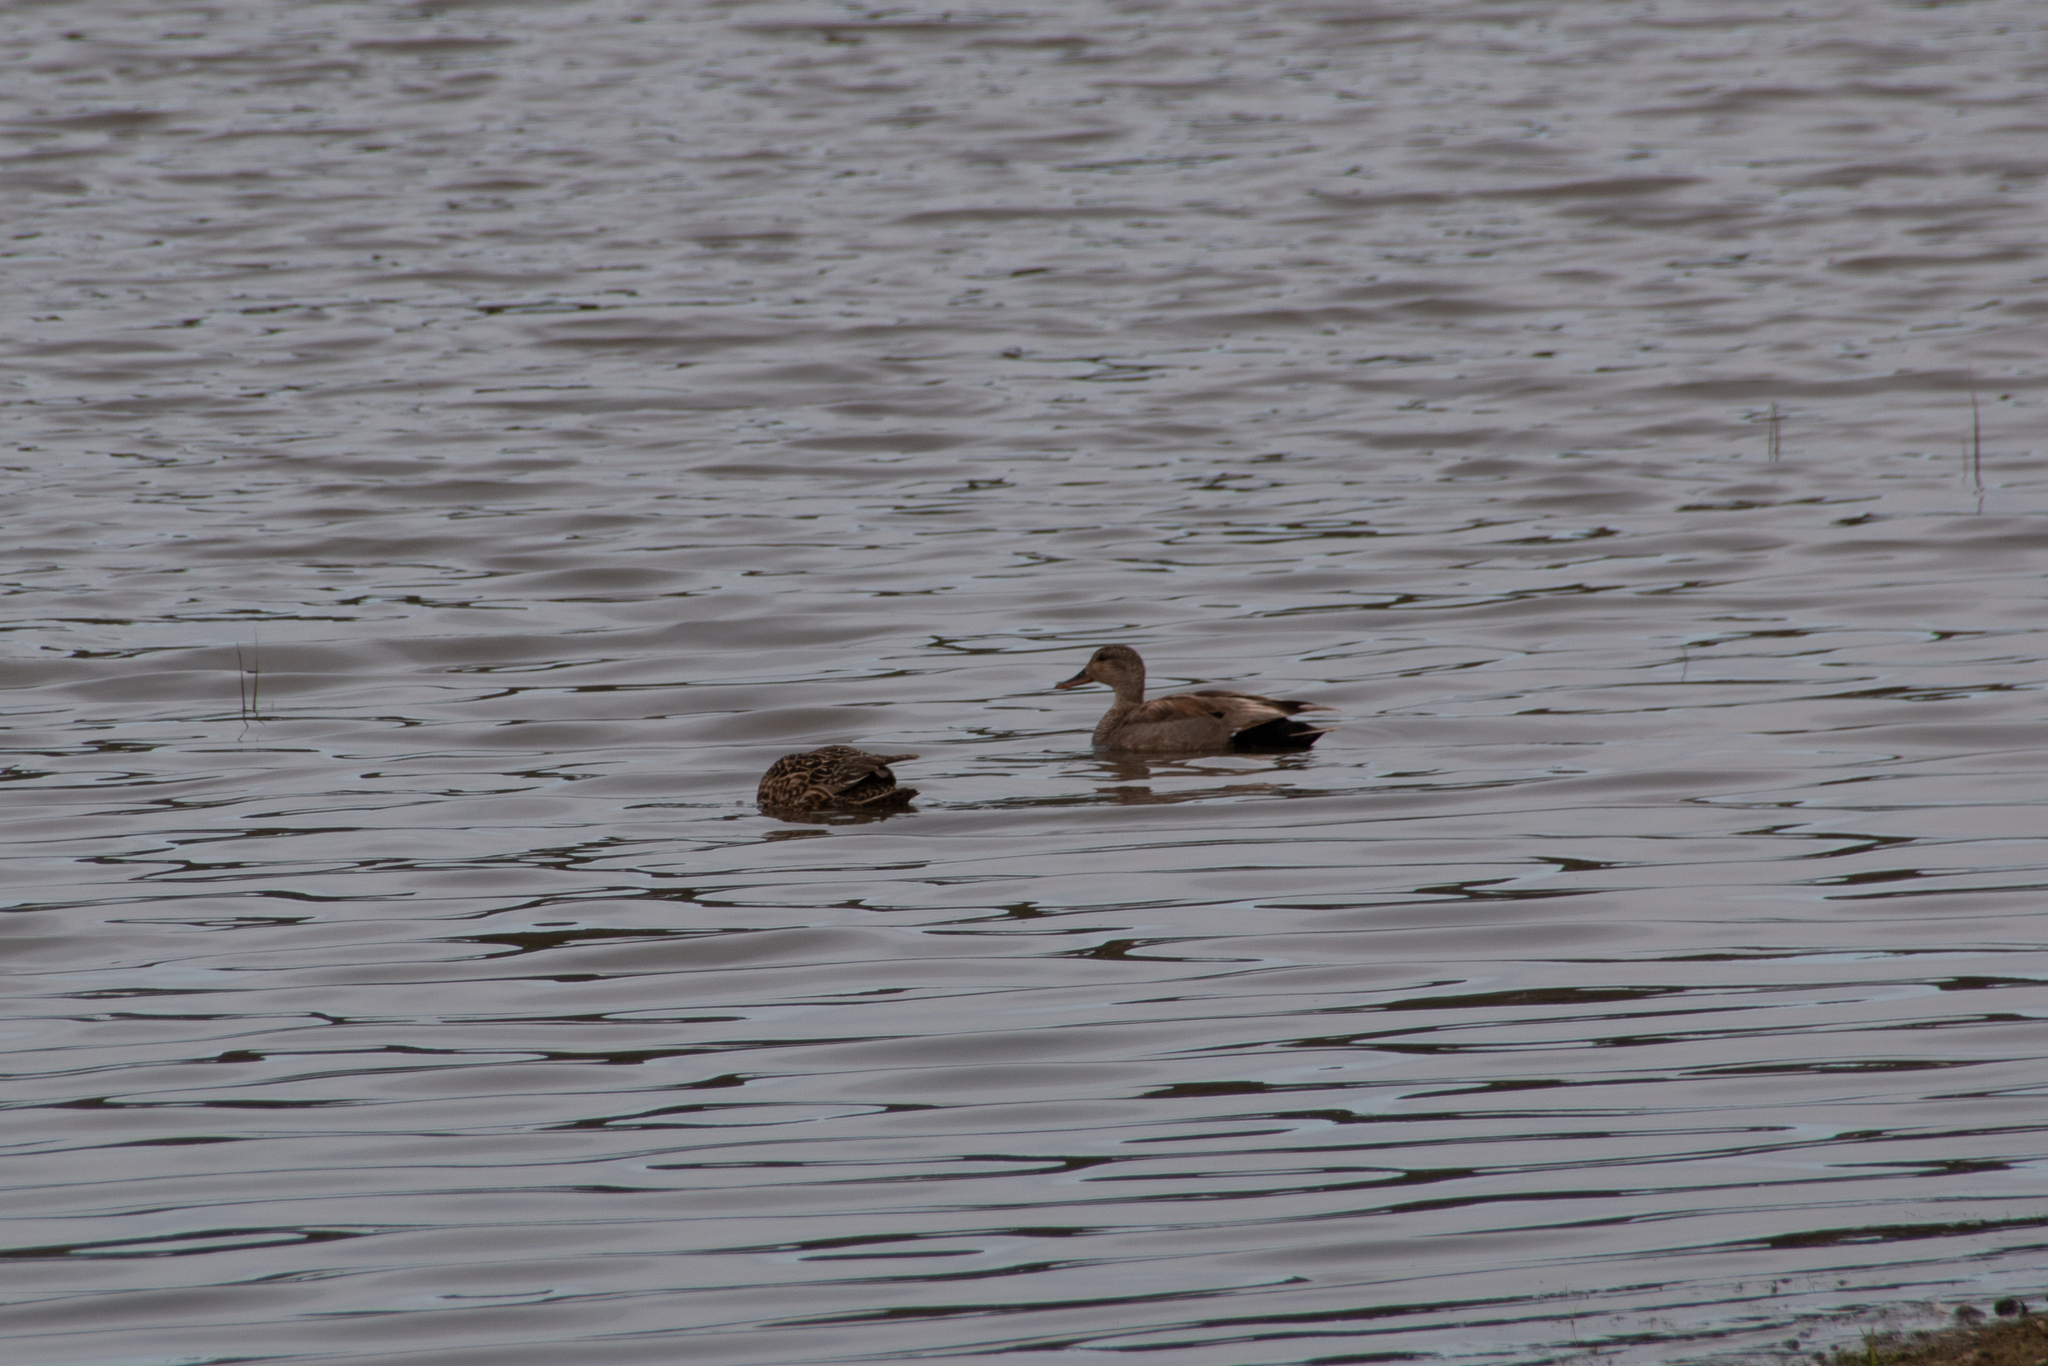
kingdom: Animalia
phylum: Chordata
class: Aves
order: Anseriformes
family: Anatidae
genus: Mareca
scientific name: Mareca strepera
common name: Gadwall
